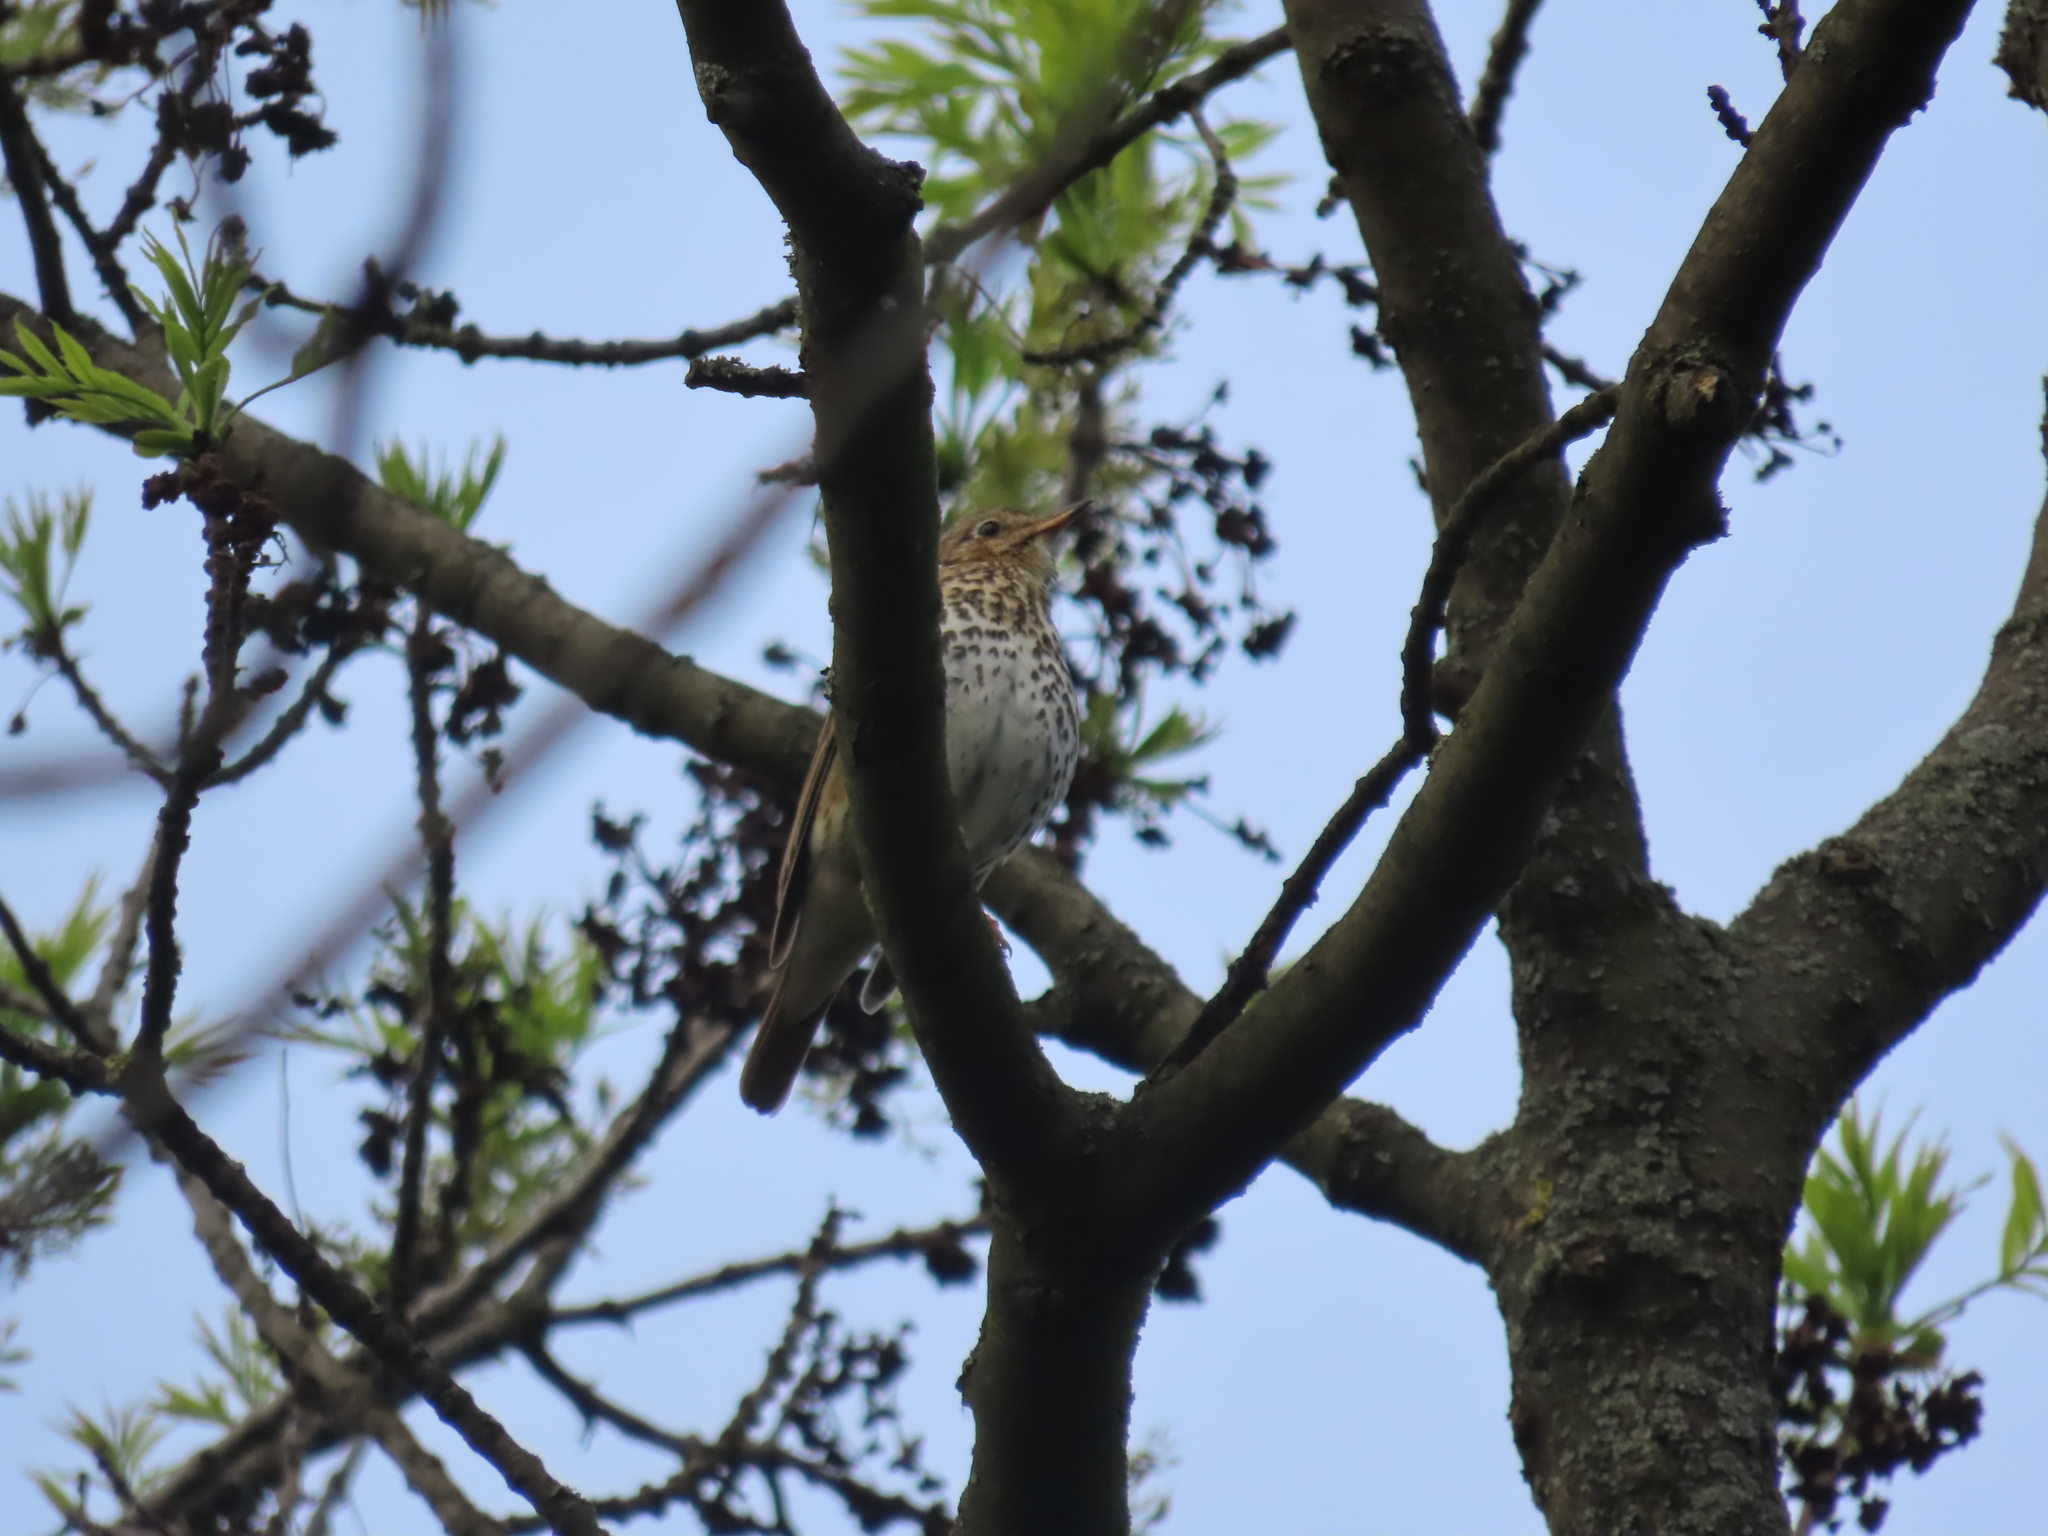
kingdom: Animalia
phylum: Chordata
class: Aves
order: Passeriformes
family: Turdidae
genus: Turdus
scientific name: Turdus philomelos
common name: Song thrush
